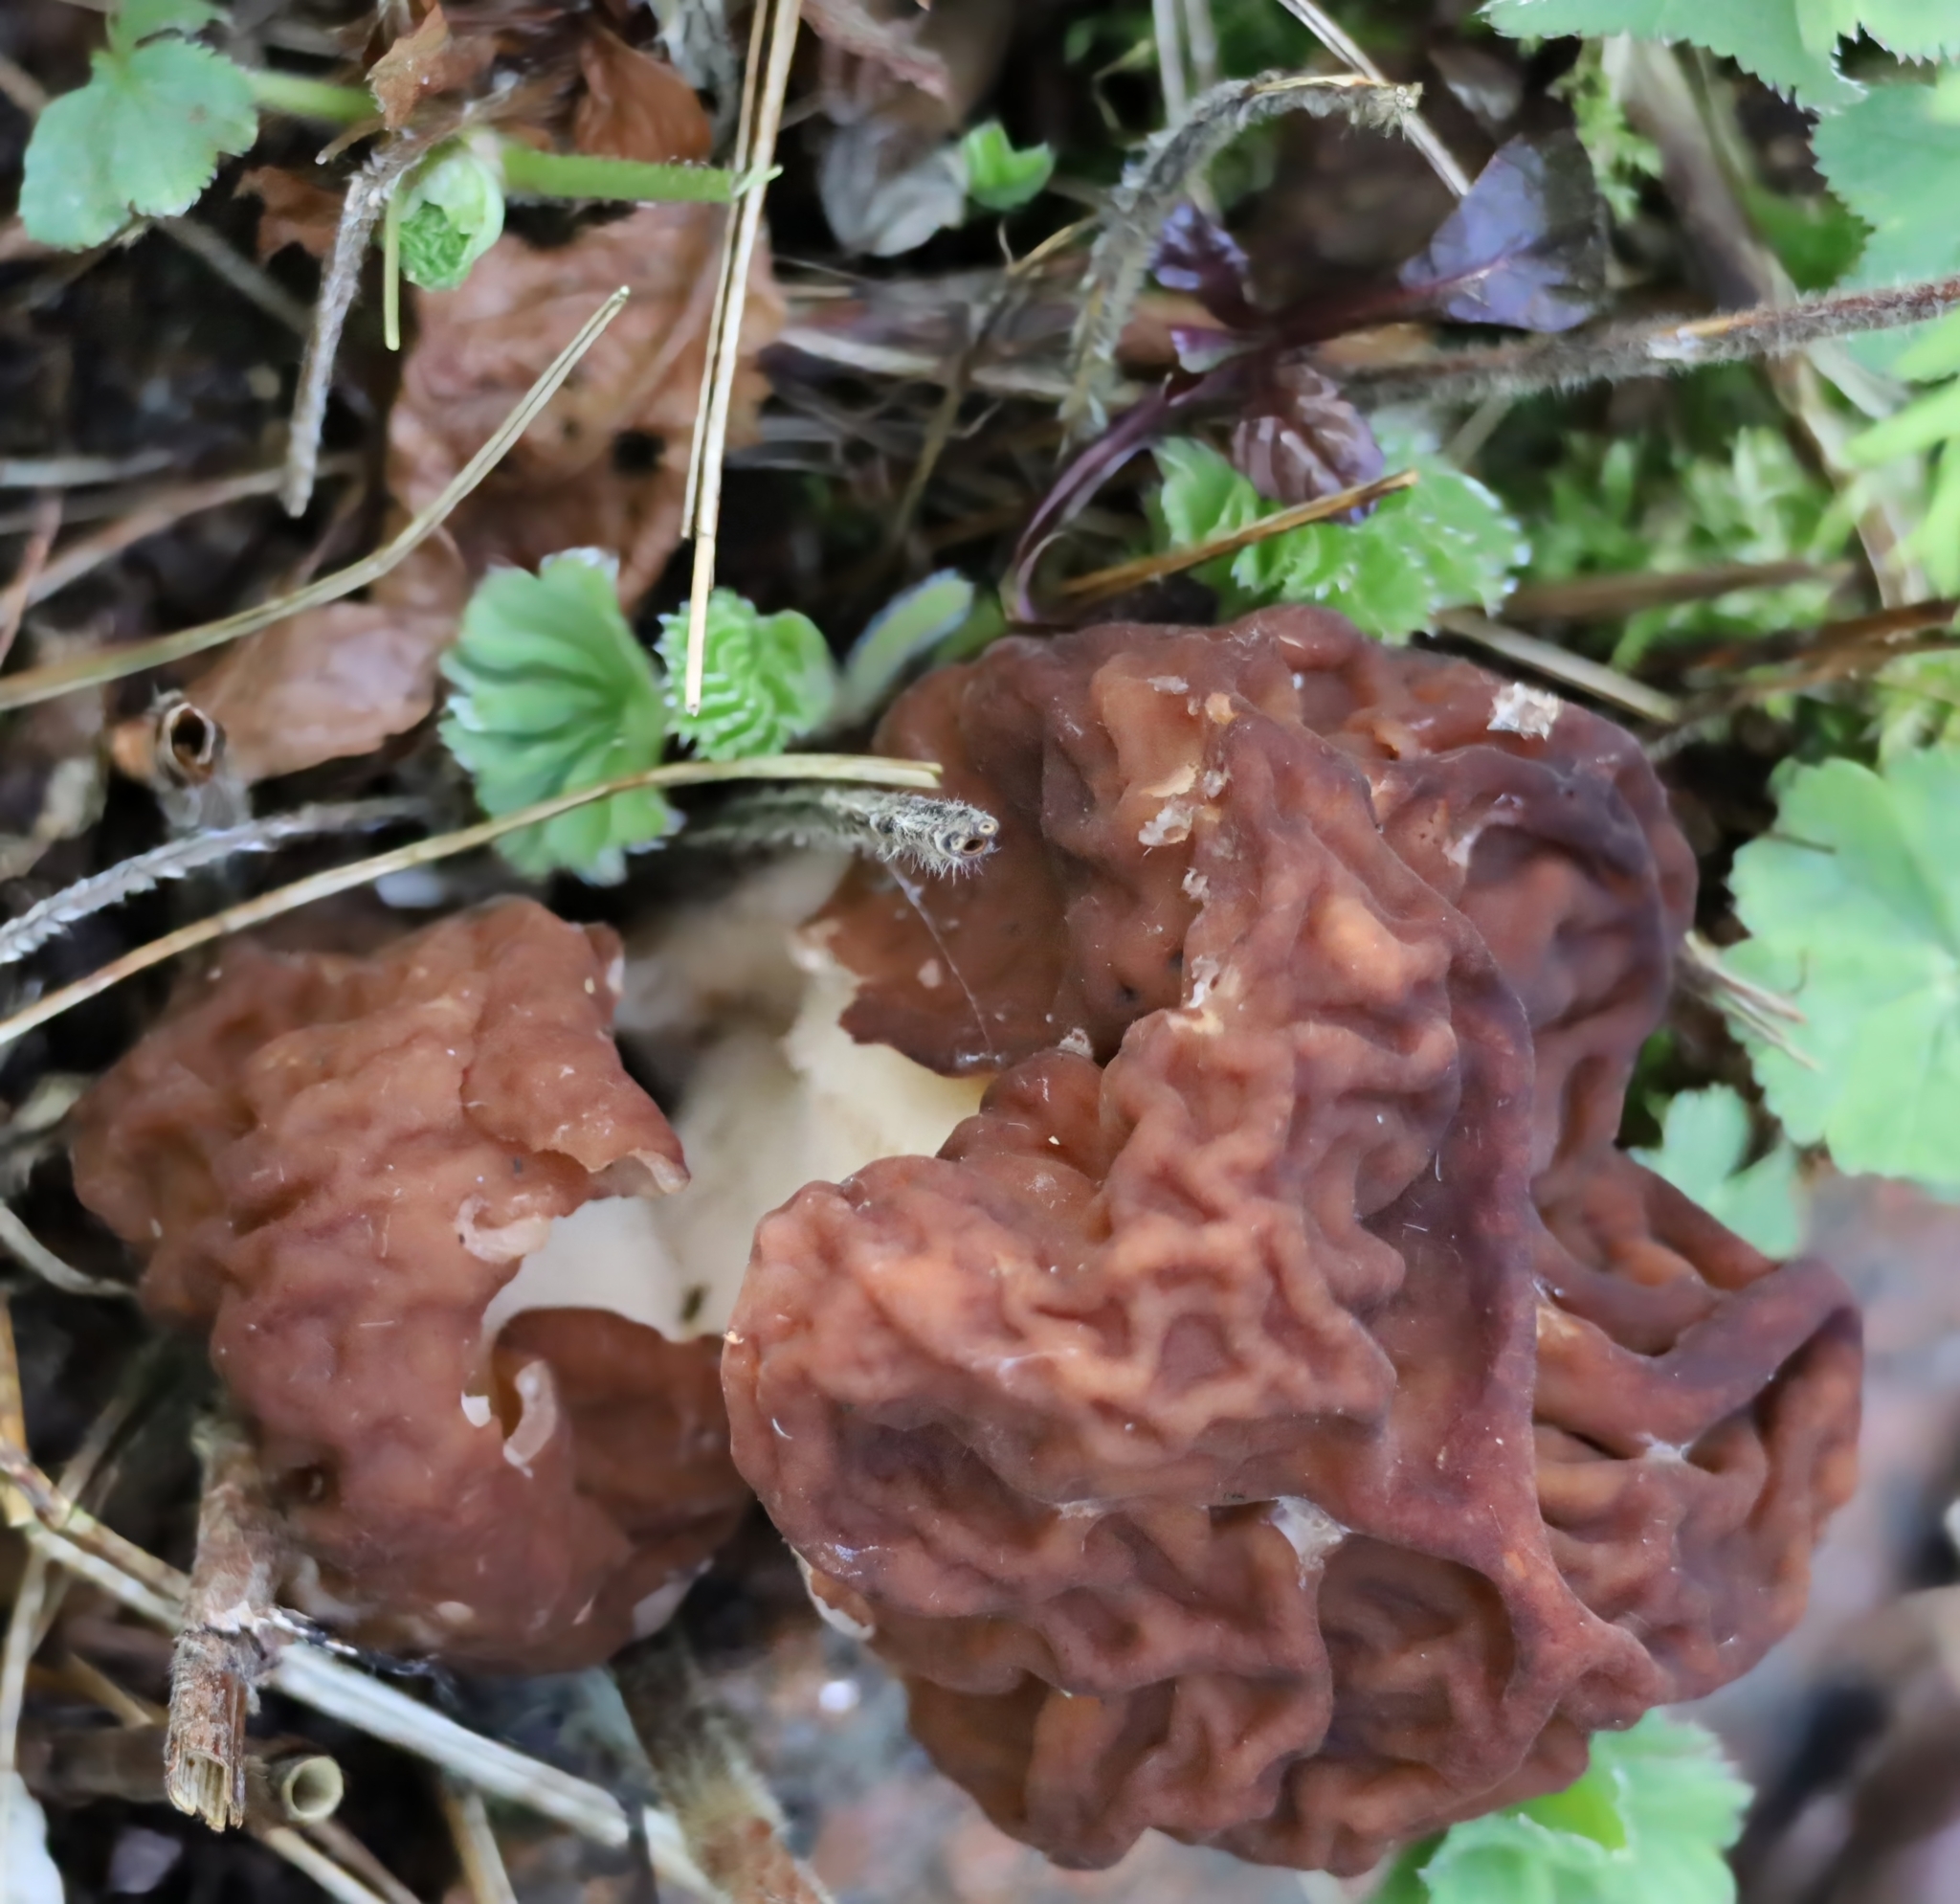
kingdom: Fungi
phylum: Ascomycota
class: Pezizomycetes
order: Pezizales
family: Discinaceae
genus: Gyromitra
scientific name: Gyromitra esculenta
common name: False morel
